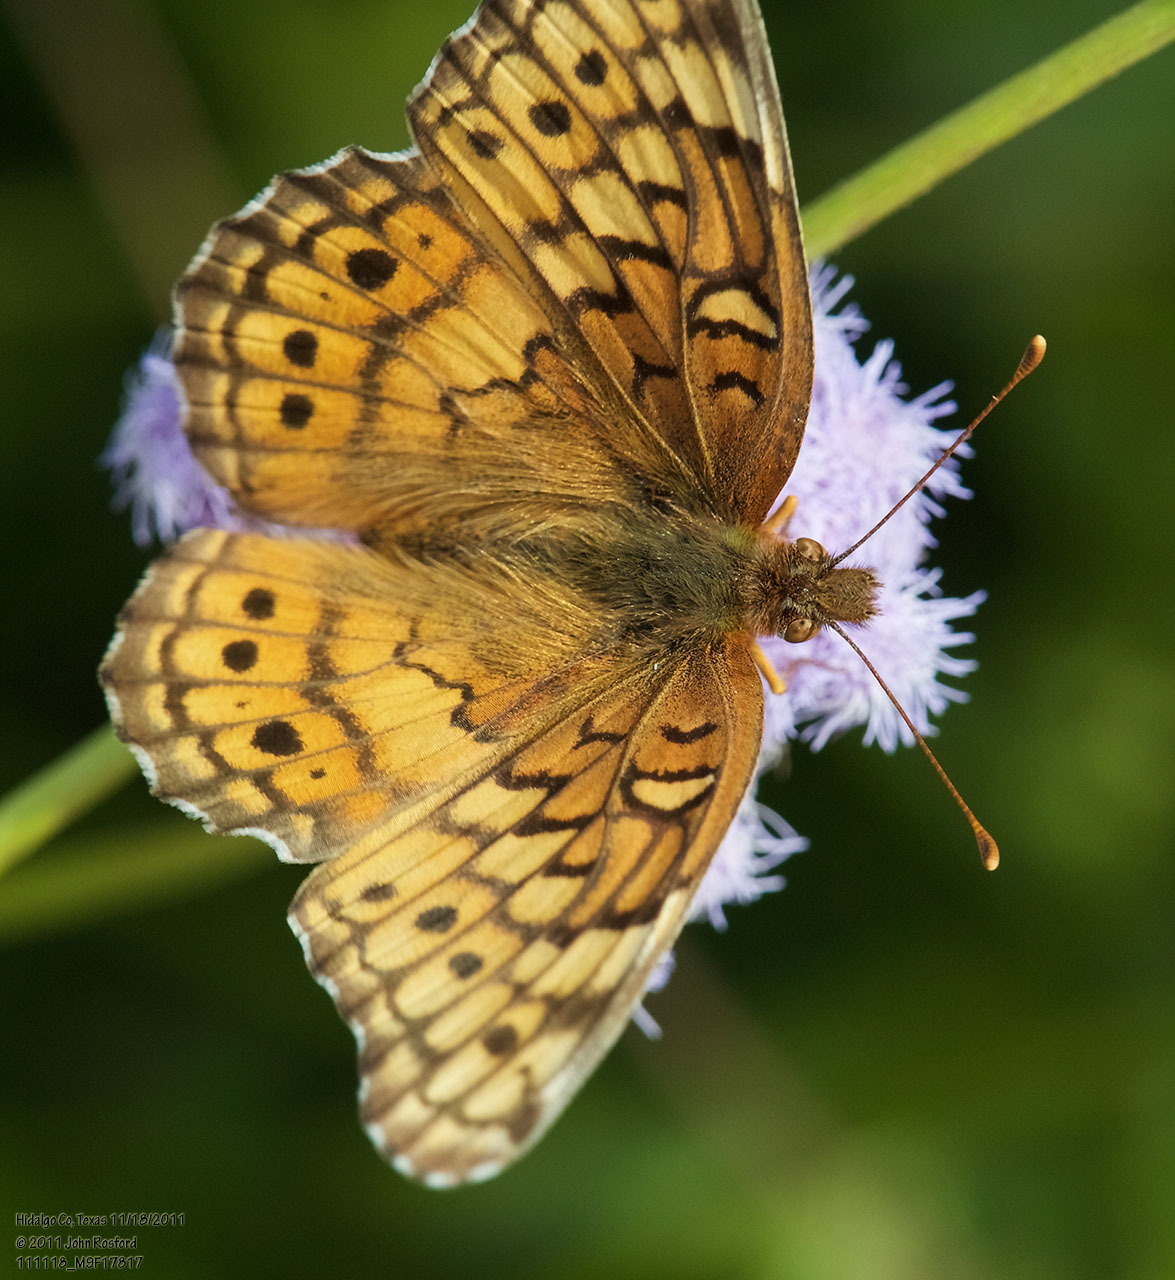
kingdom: Animalia
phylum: Arthropoda
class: Insecta
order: Lepidoptera
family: Nymphalidae
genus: Euptoieta
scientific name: Euptoieta claudia
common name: Variegated fritillary
